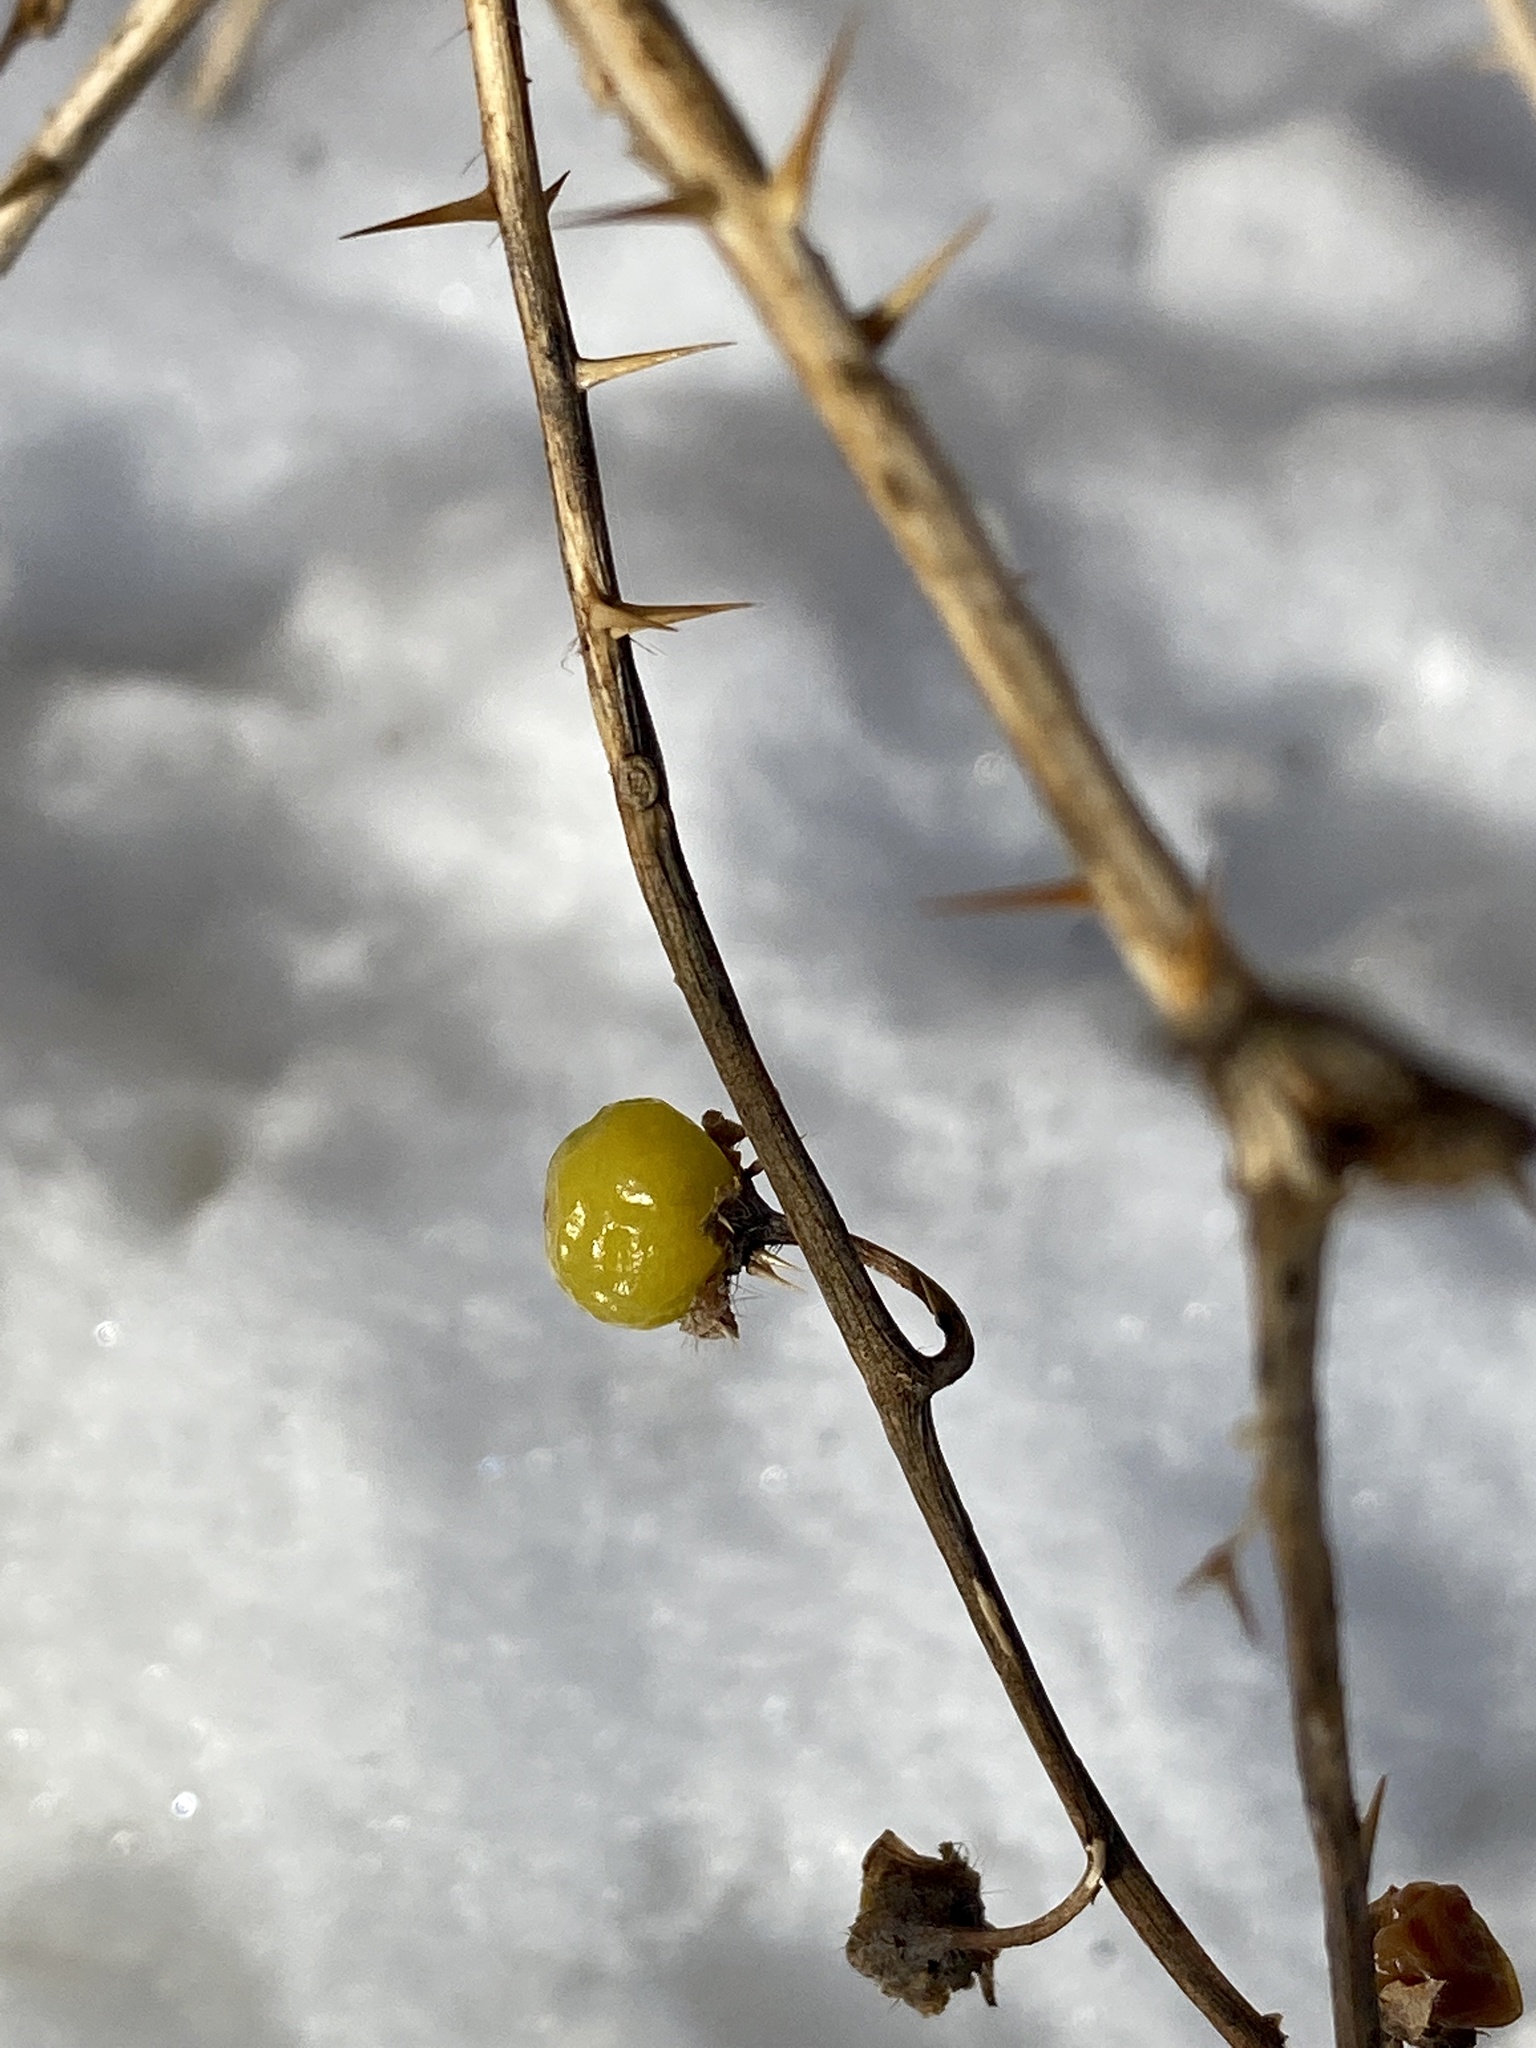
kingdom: Plantae
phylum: Tracheophyta
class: Magnoliopsida
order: Solanales
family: Solanaceae
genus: Solanum
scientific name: Solanum carolinense
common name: Horse-nettle
